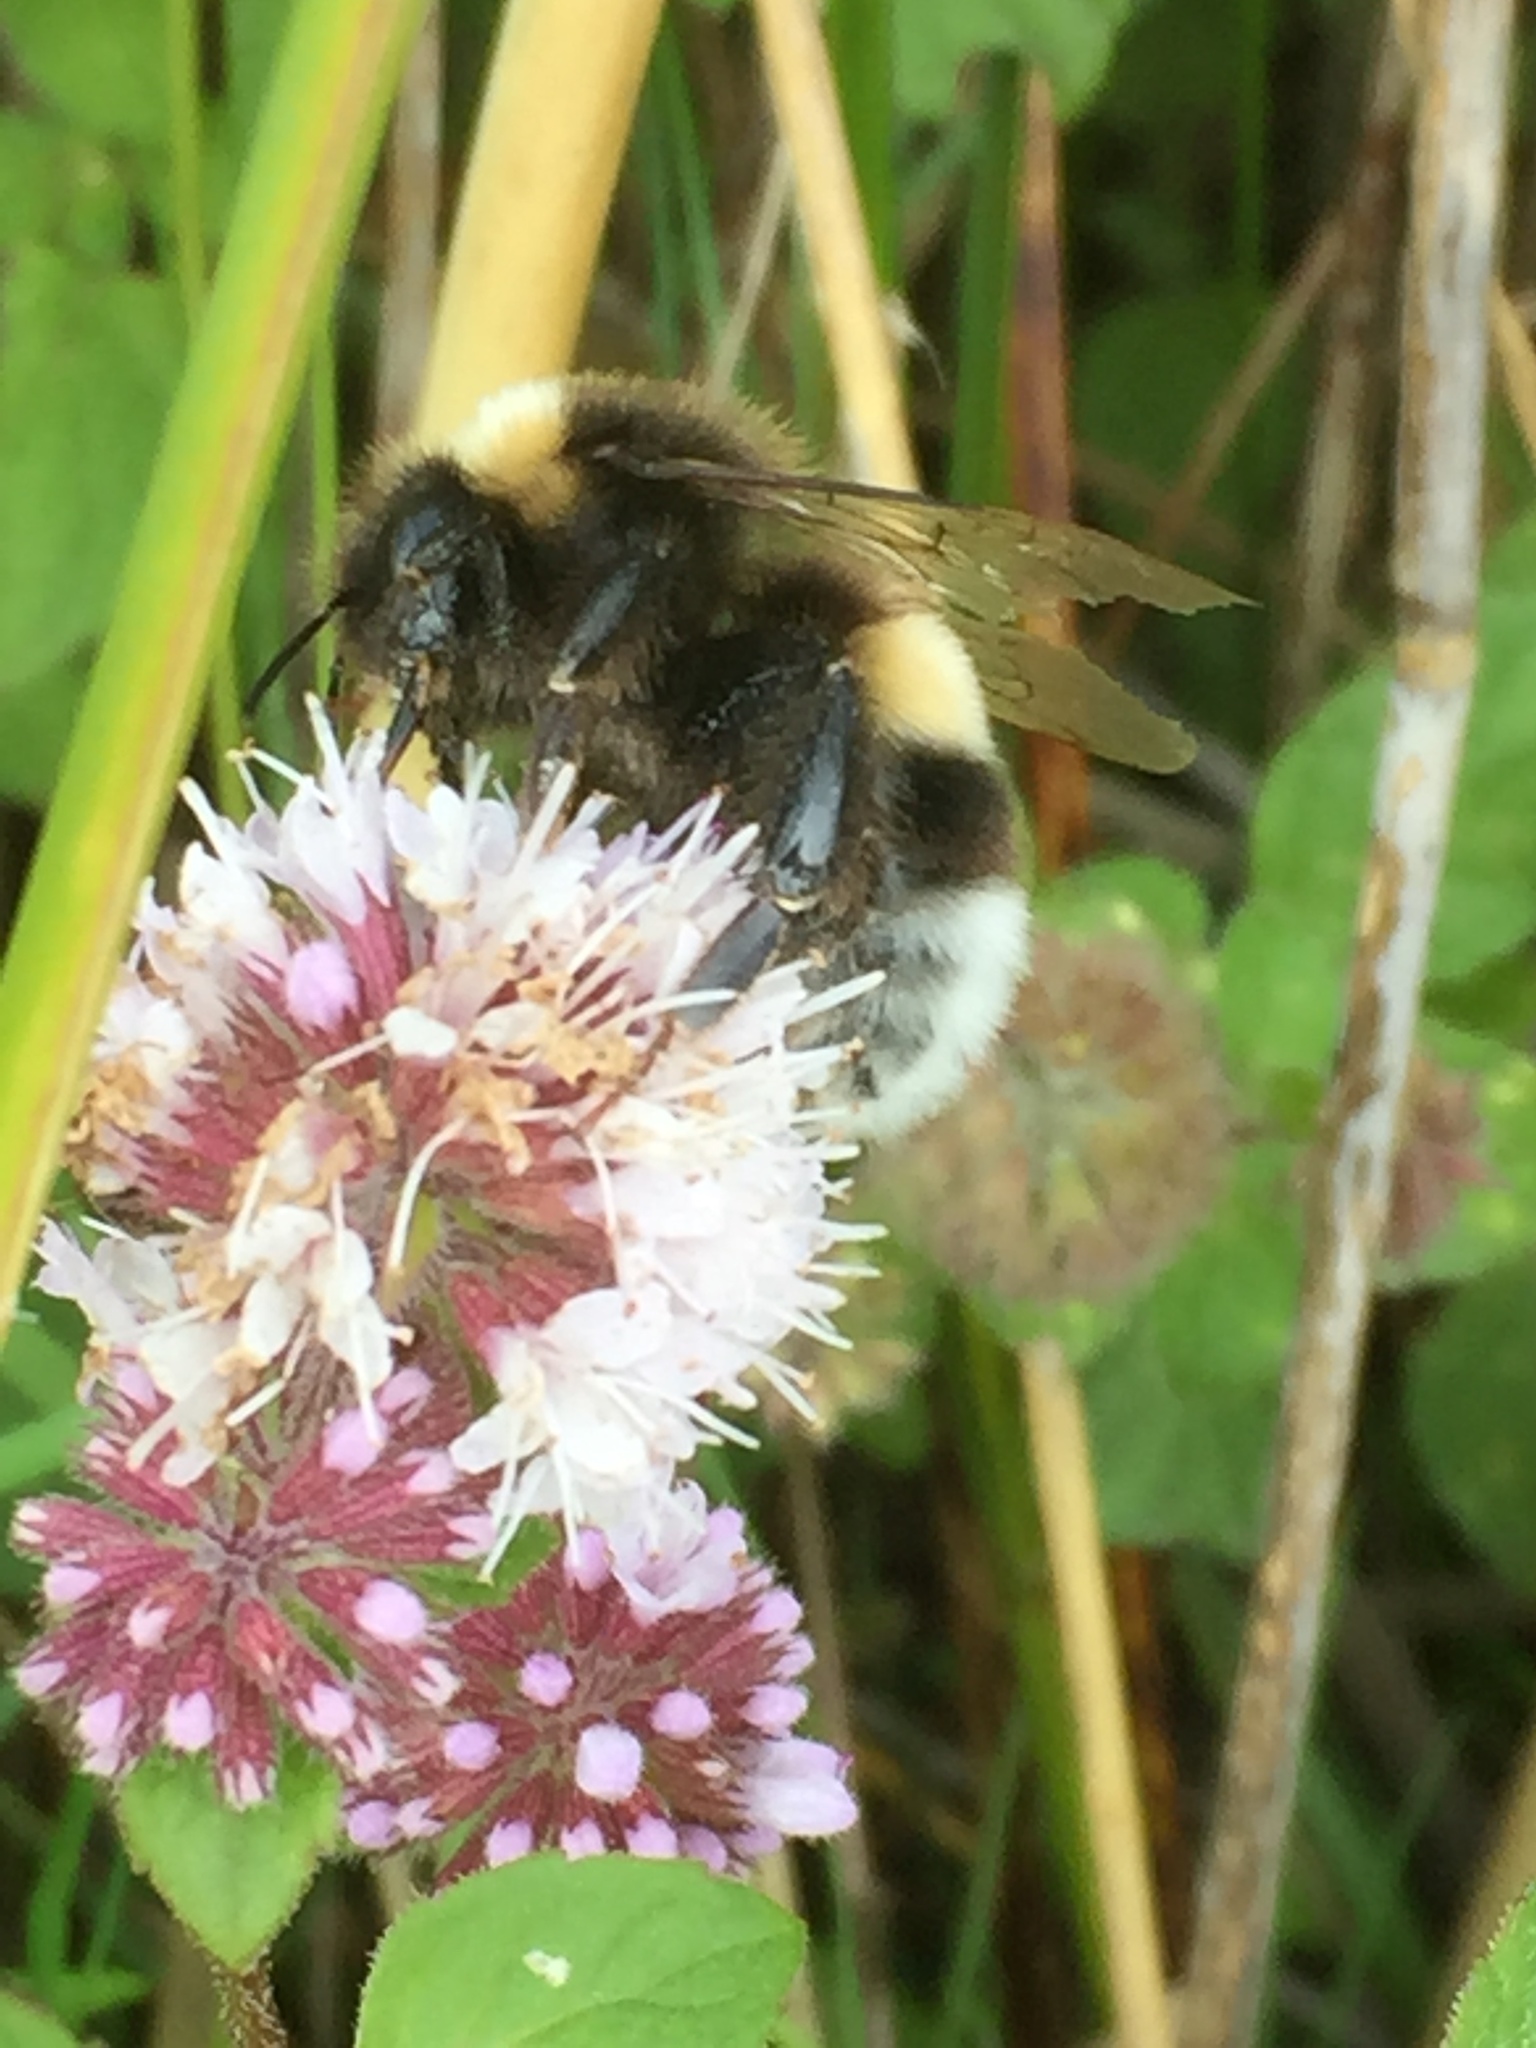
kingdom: Plantae
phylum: Tracheophyta
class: Magnoliopsida
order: Lamiales
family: Lamiaceae
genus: Mentha
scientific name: Mentha aquatica
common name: Water mint
